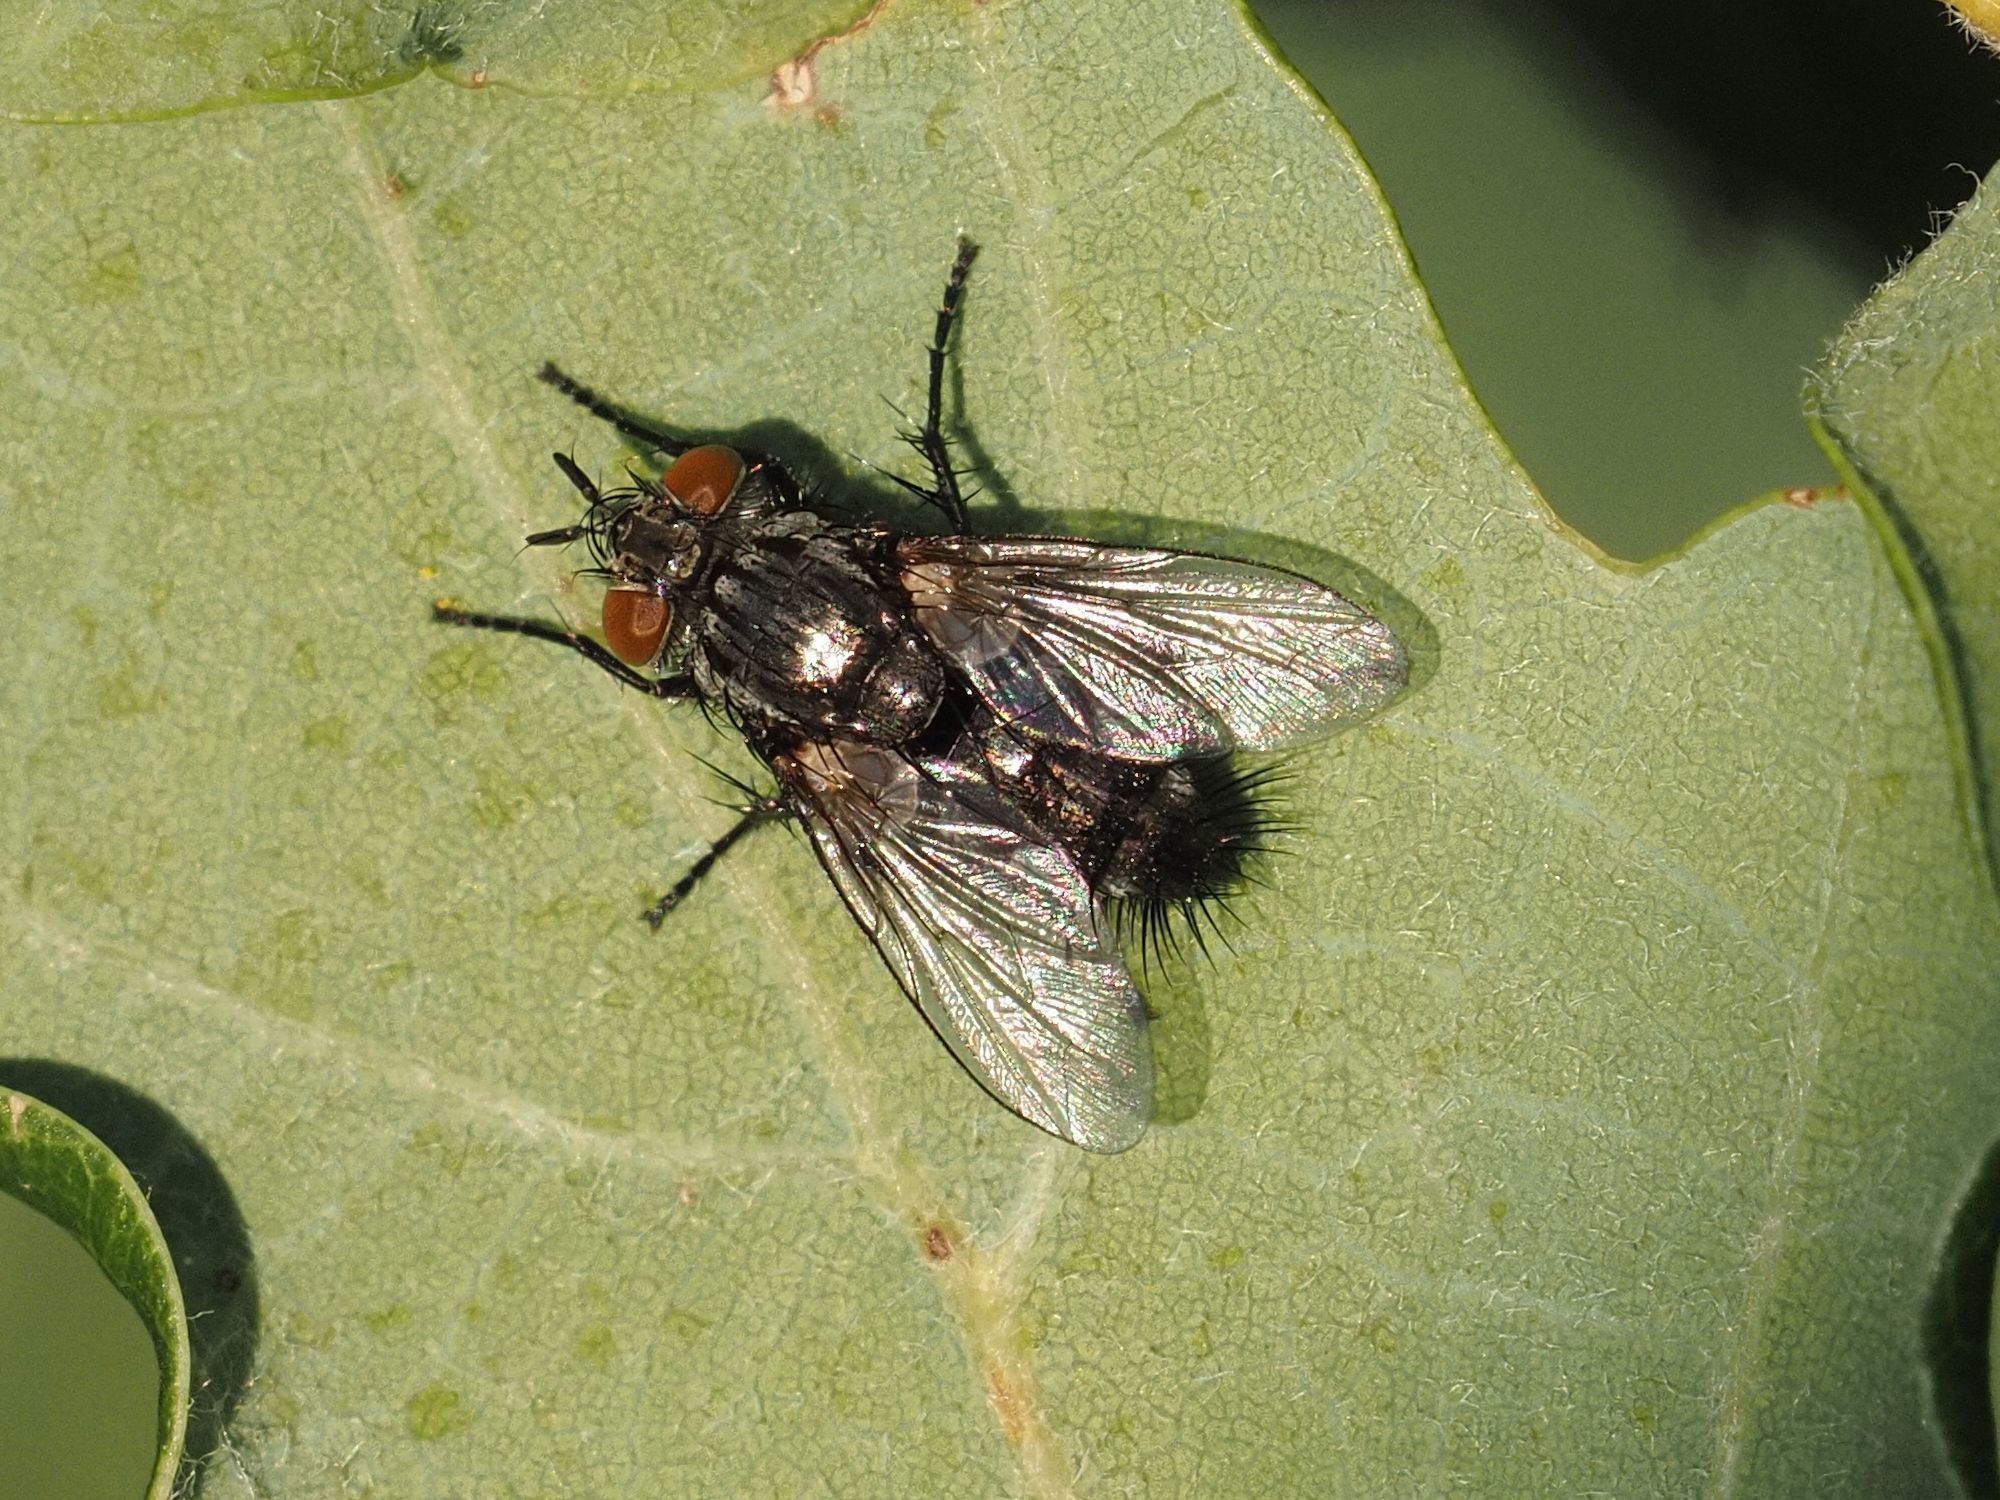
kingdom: Animalia
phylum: Arthropoda
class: Insecta
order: Diptera
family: Tachinidae
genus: Voria
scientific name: Voria ruralis
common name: Parasitic fly
